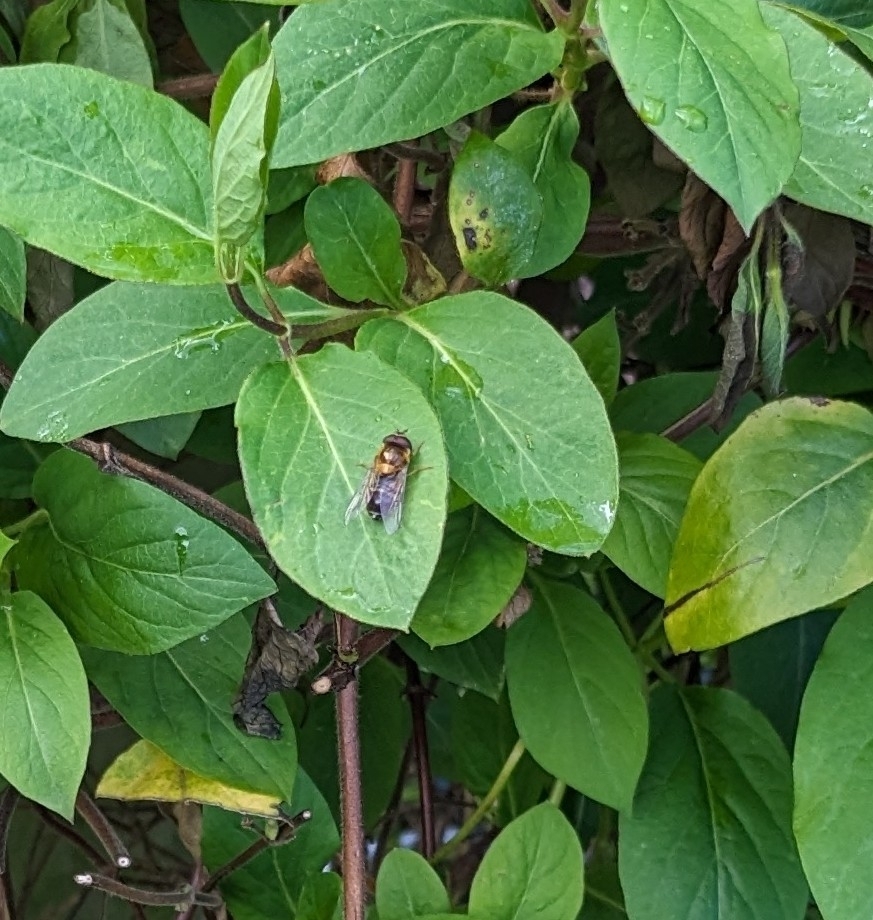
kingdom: Animalia
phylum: Arthropoda
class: Insecta
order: Diptera
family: Syrphidae
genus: Epistrophe
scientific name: Epistrophe eligans
